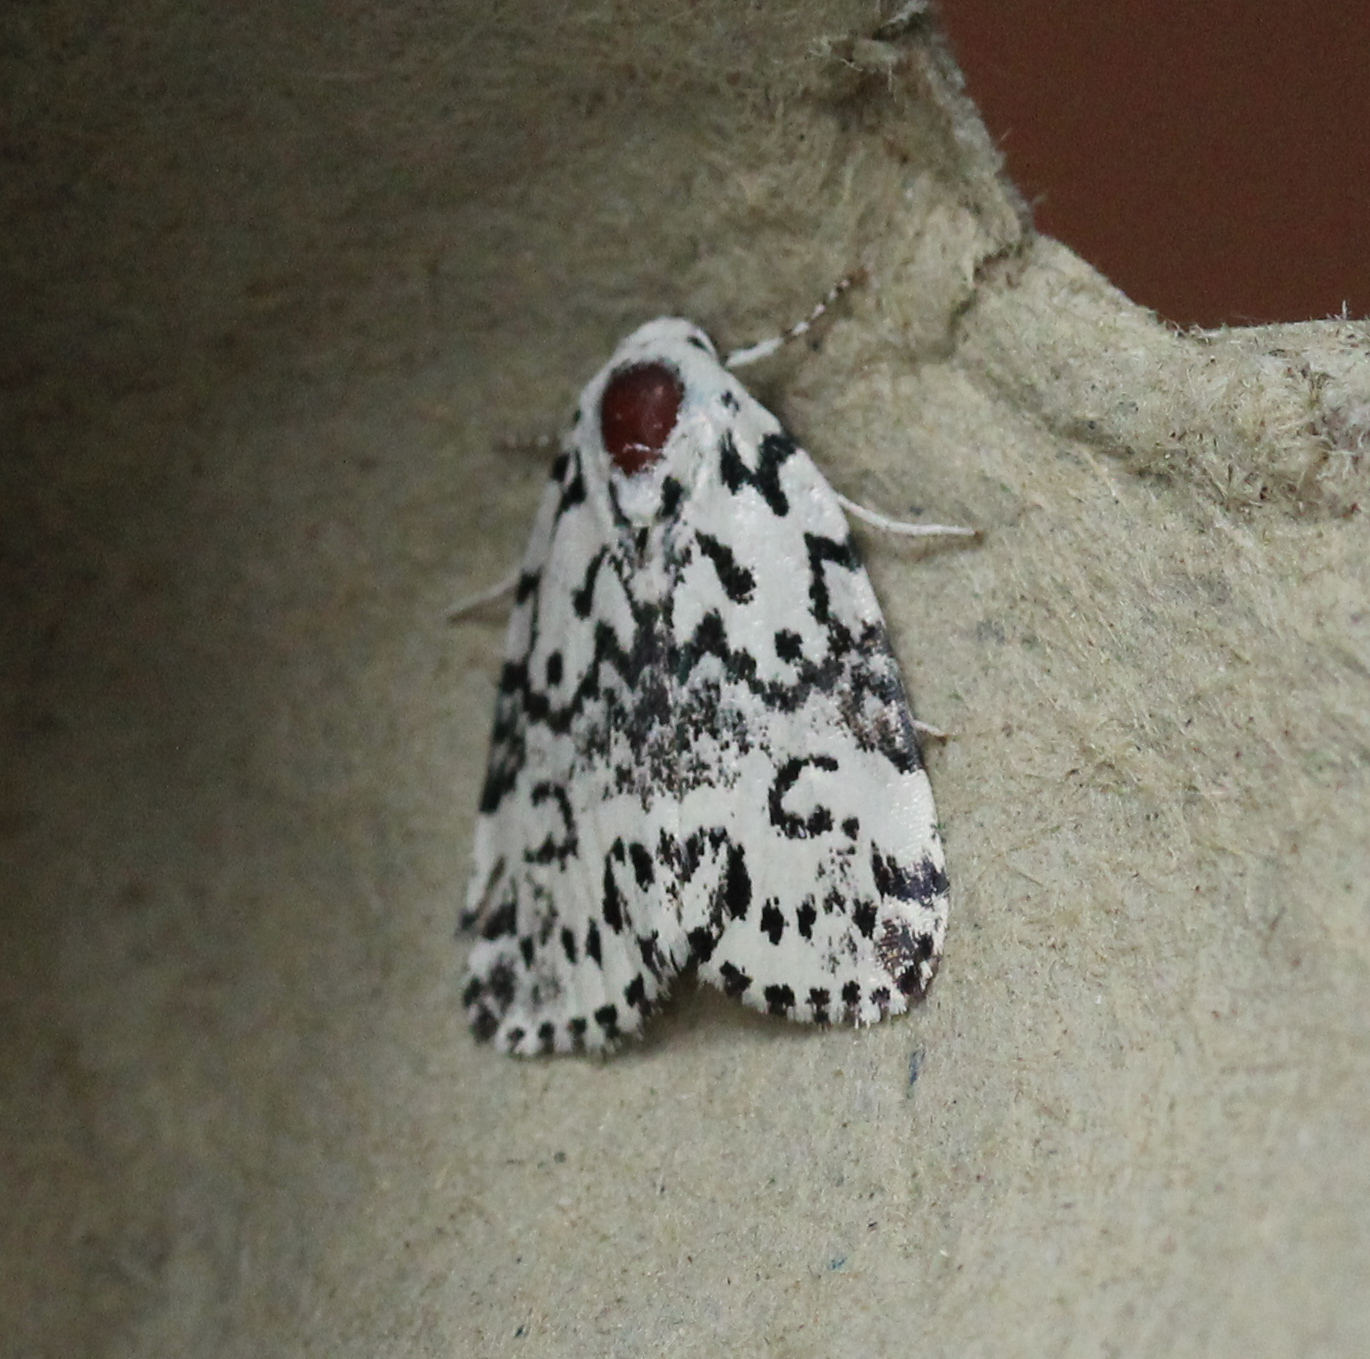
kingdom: Animalia
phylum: Arthropoda
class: Insecta
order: Lepidoptera
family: Noctuidae
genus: Polygrammate
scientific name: Polygrammate hebraeicum
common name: Hebrew moth
